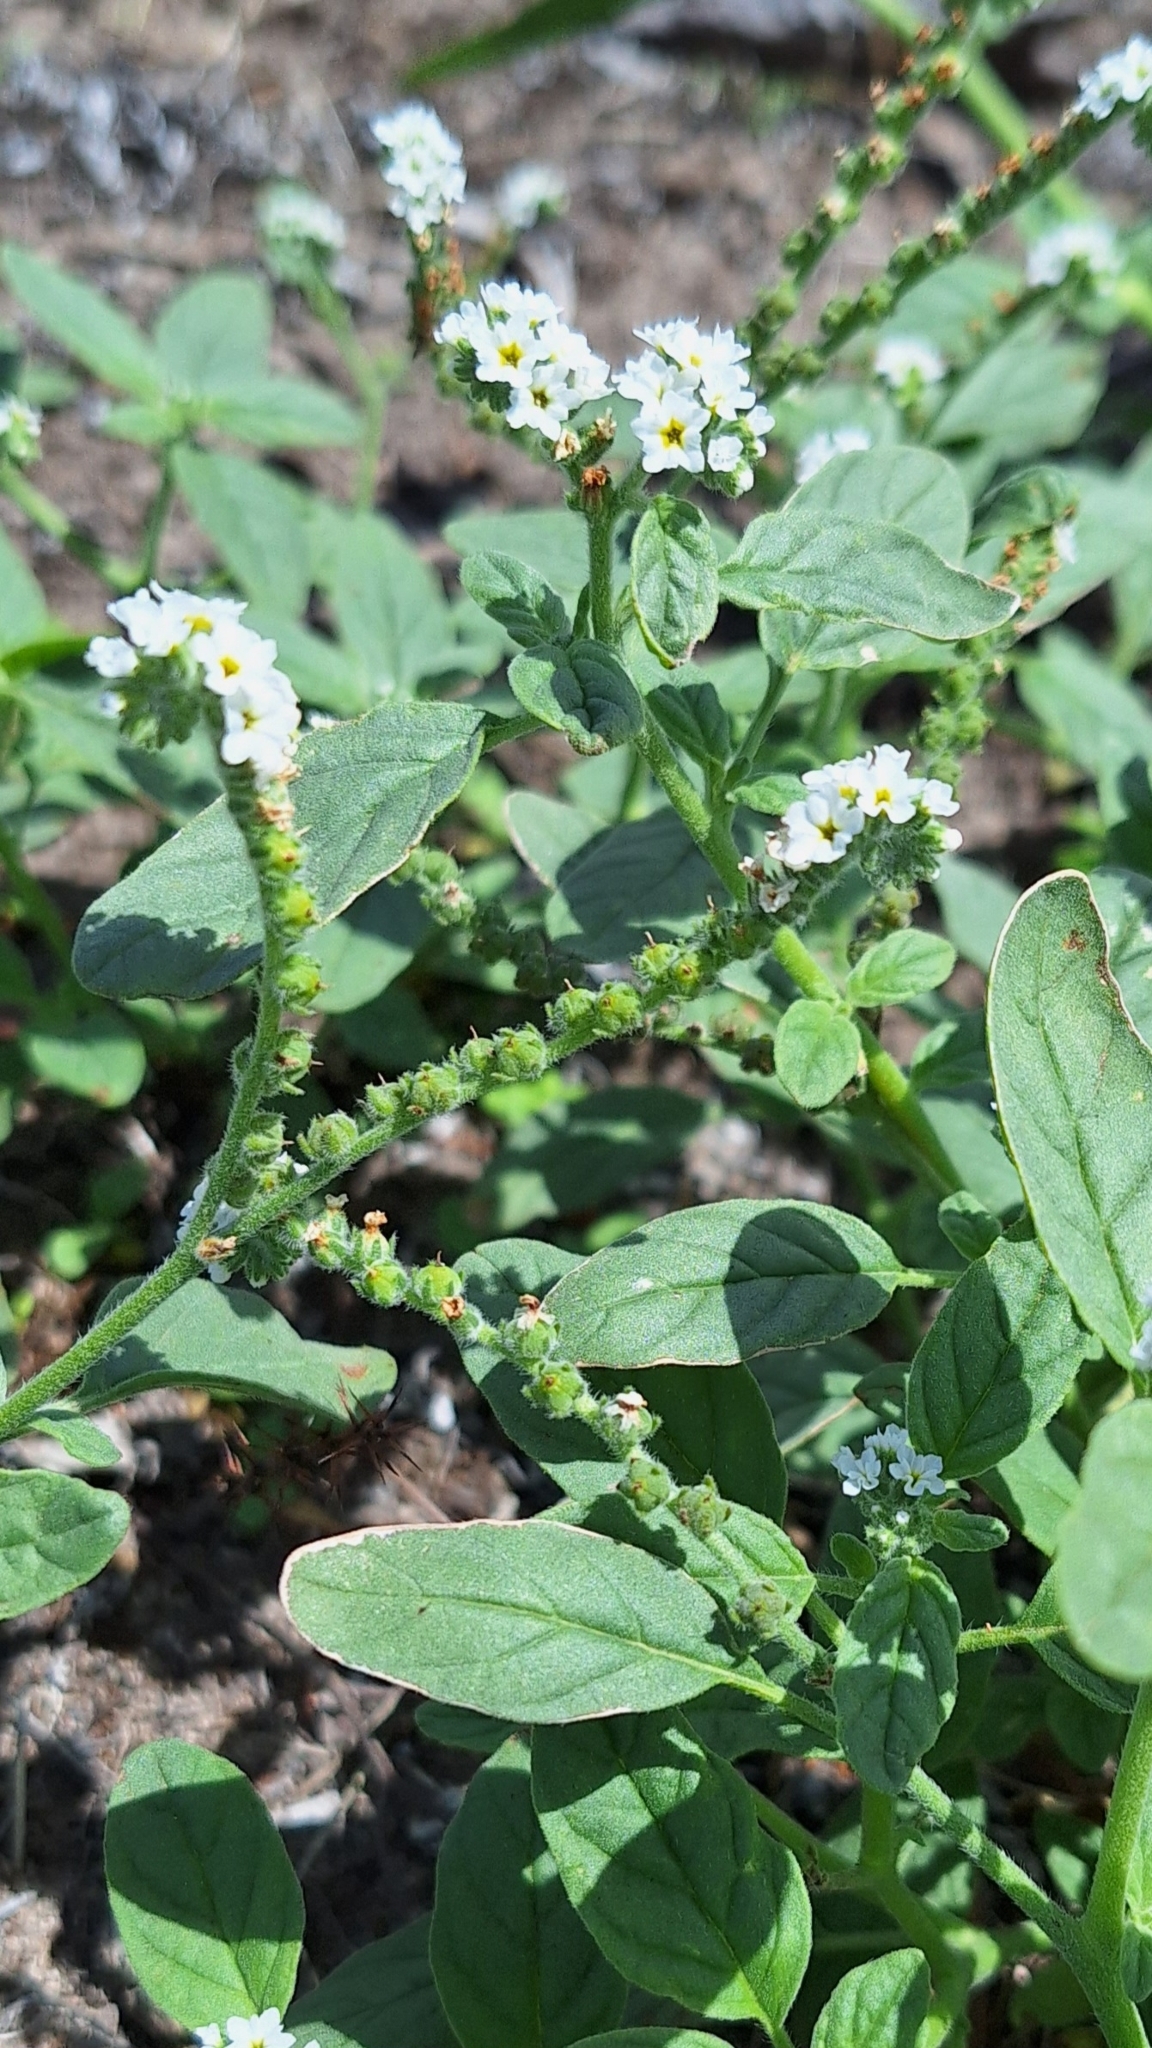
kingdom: Plantae
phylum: Tracheophyta
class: Magnoliopsida
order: Boraginales
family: Heliotropiaceae
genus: Heliotropium
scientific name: Heliotropium europaeum
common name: European heliotrope
